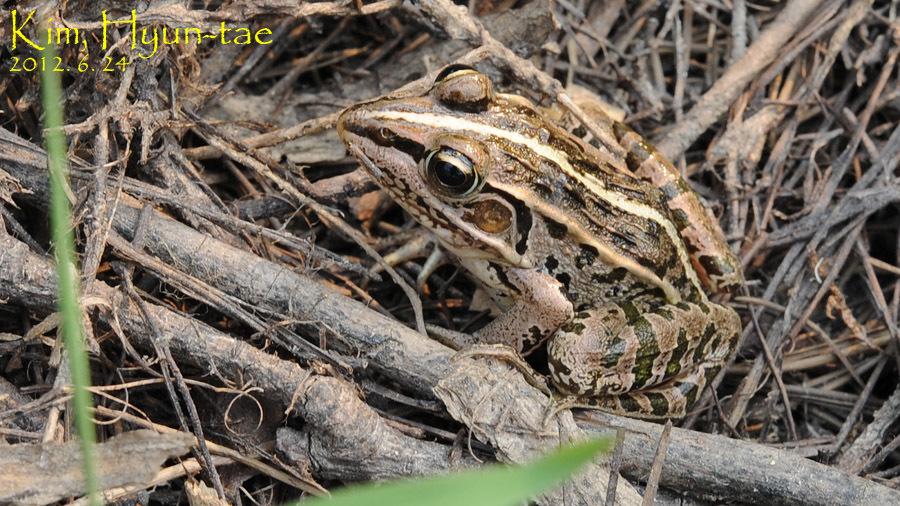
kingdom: Animalia
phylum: Chordata
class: Amphibia
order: Anura
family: Ranidae
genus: Pelophylax
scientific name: Pelophylax nigromaculatus
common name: Black-spotted pond frog
